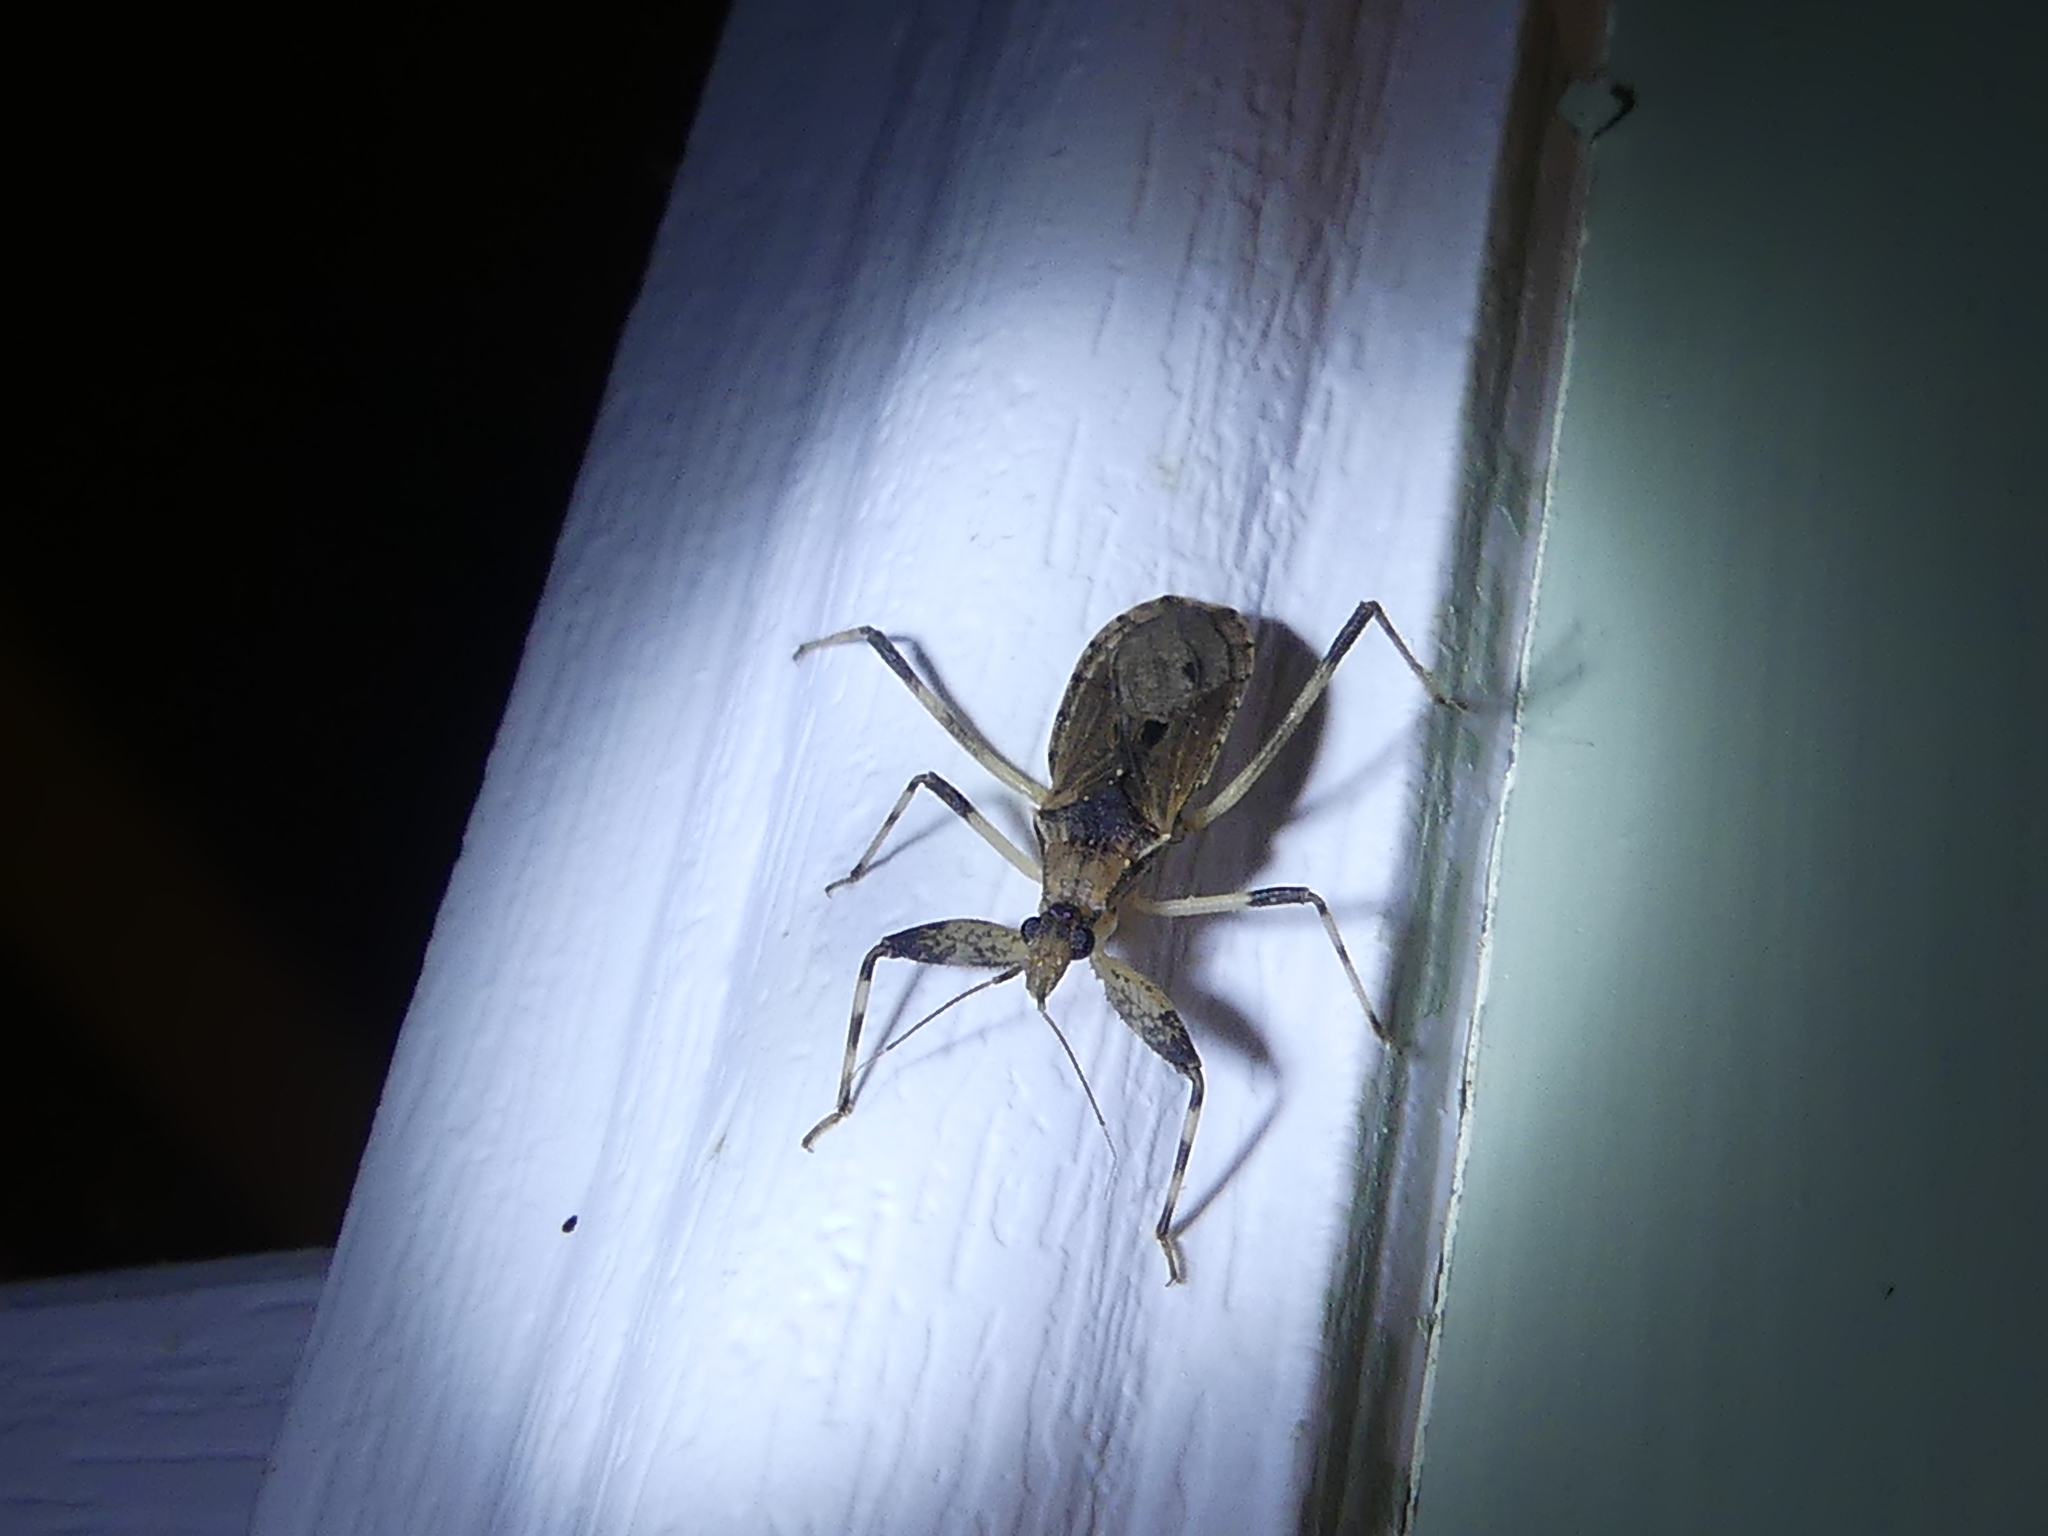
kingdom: Animalia
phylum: Arthropoda
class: Insecta
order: Hemiptera
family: Reduviidae
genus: Oncocephalus
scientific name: Oncocephalus geniculatus
